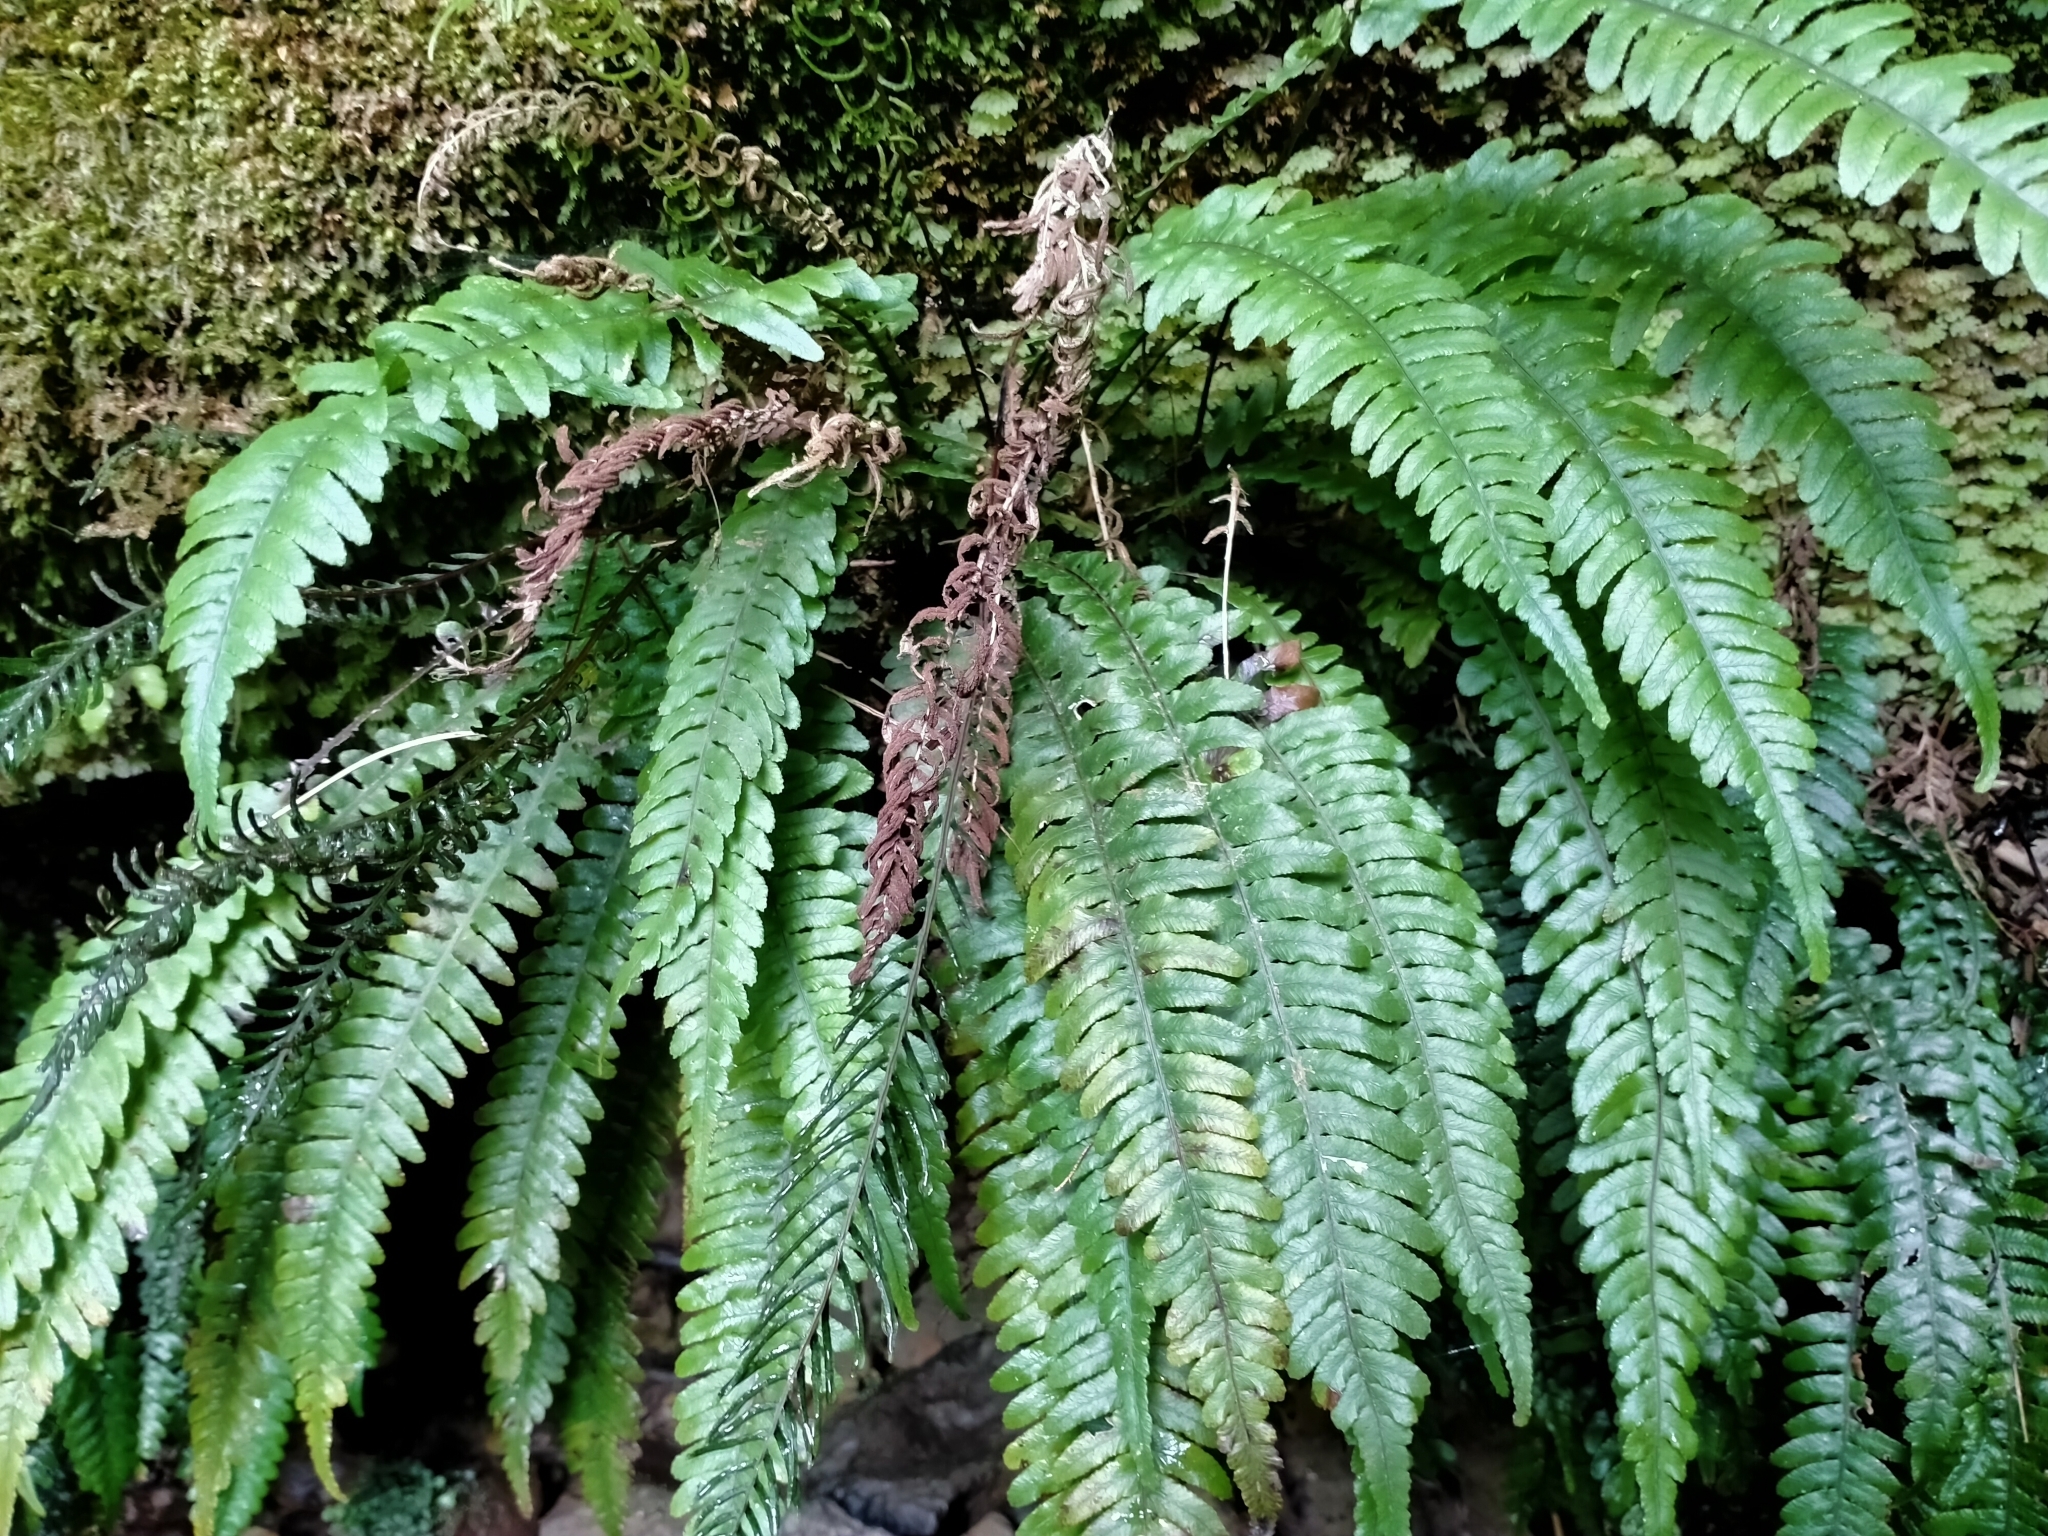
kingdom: Plantae
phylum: Tracheophyta
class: Polypodiopsida
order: Polypodiales
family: Blechnaceae
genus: Austroblechnum
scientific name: Austroblechnum lanceolatum
